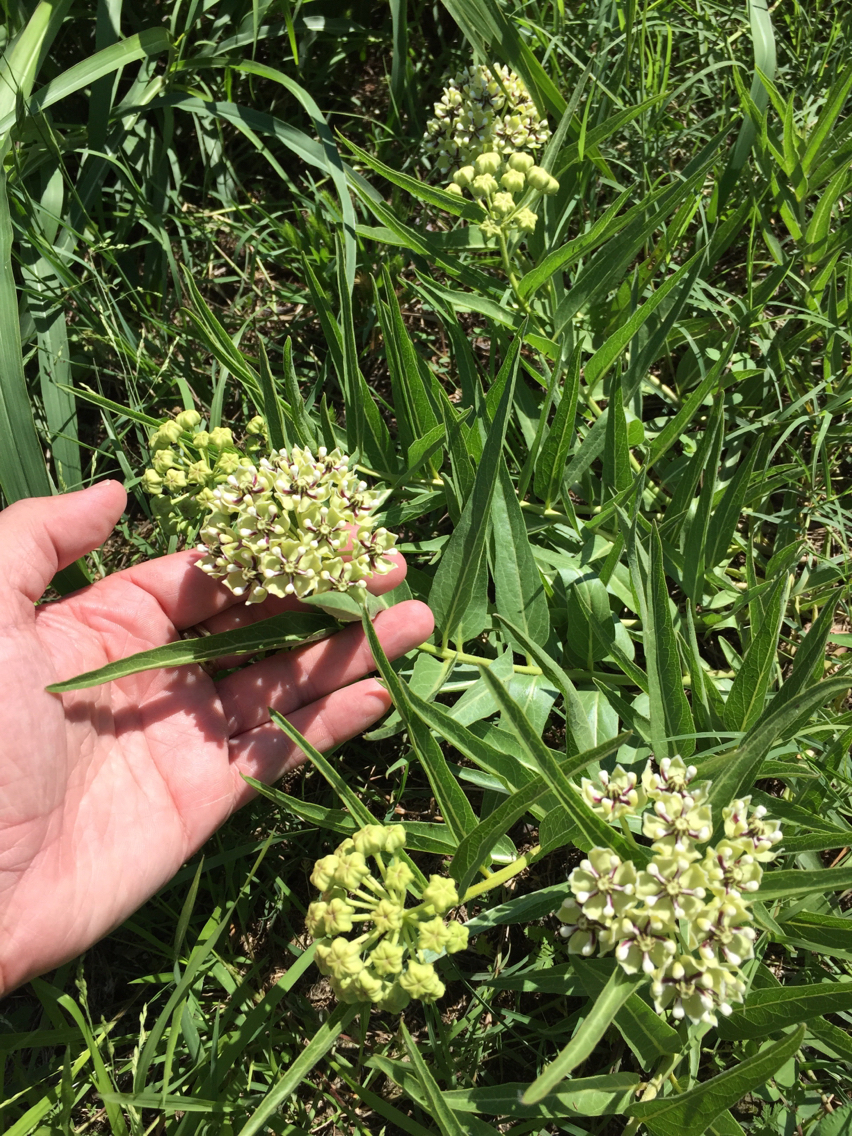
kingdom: Plantae
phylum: Tracheophyta
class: Magnoliopsida
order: Gentianales
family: Apocynaceae
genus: Asclepias
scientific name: Asclepias asperula
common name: Antelope horns
